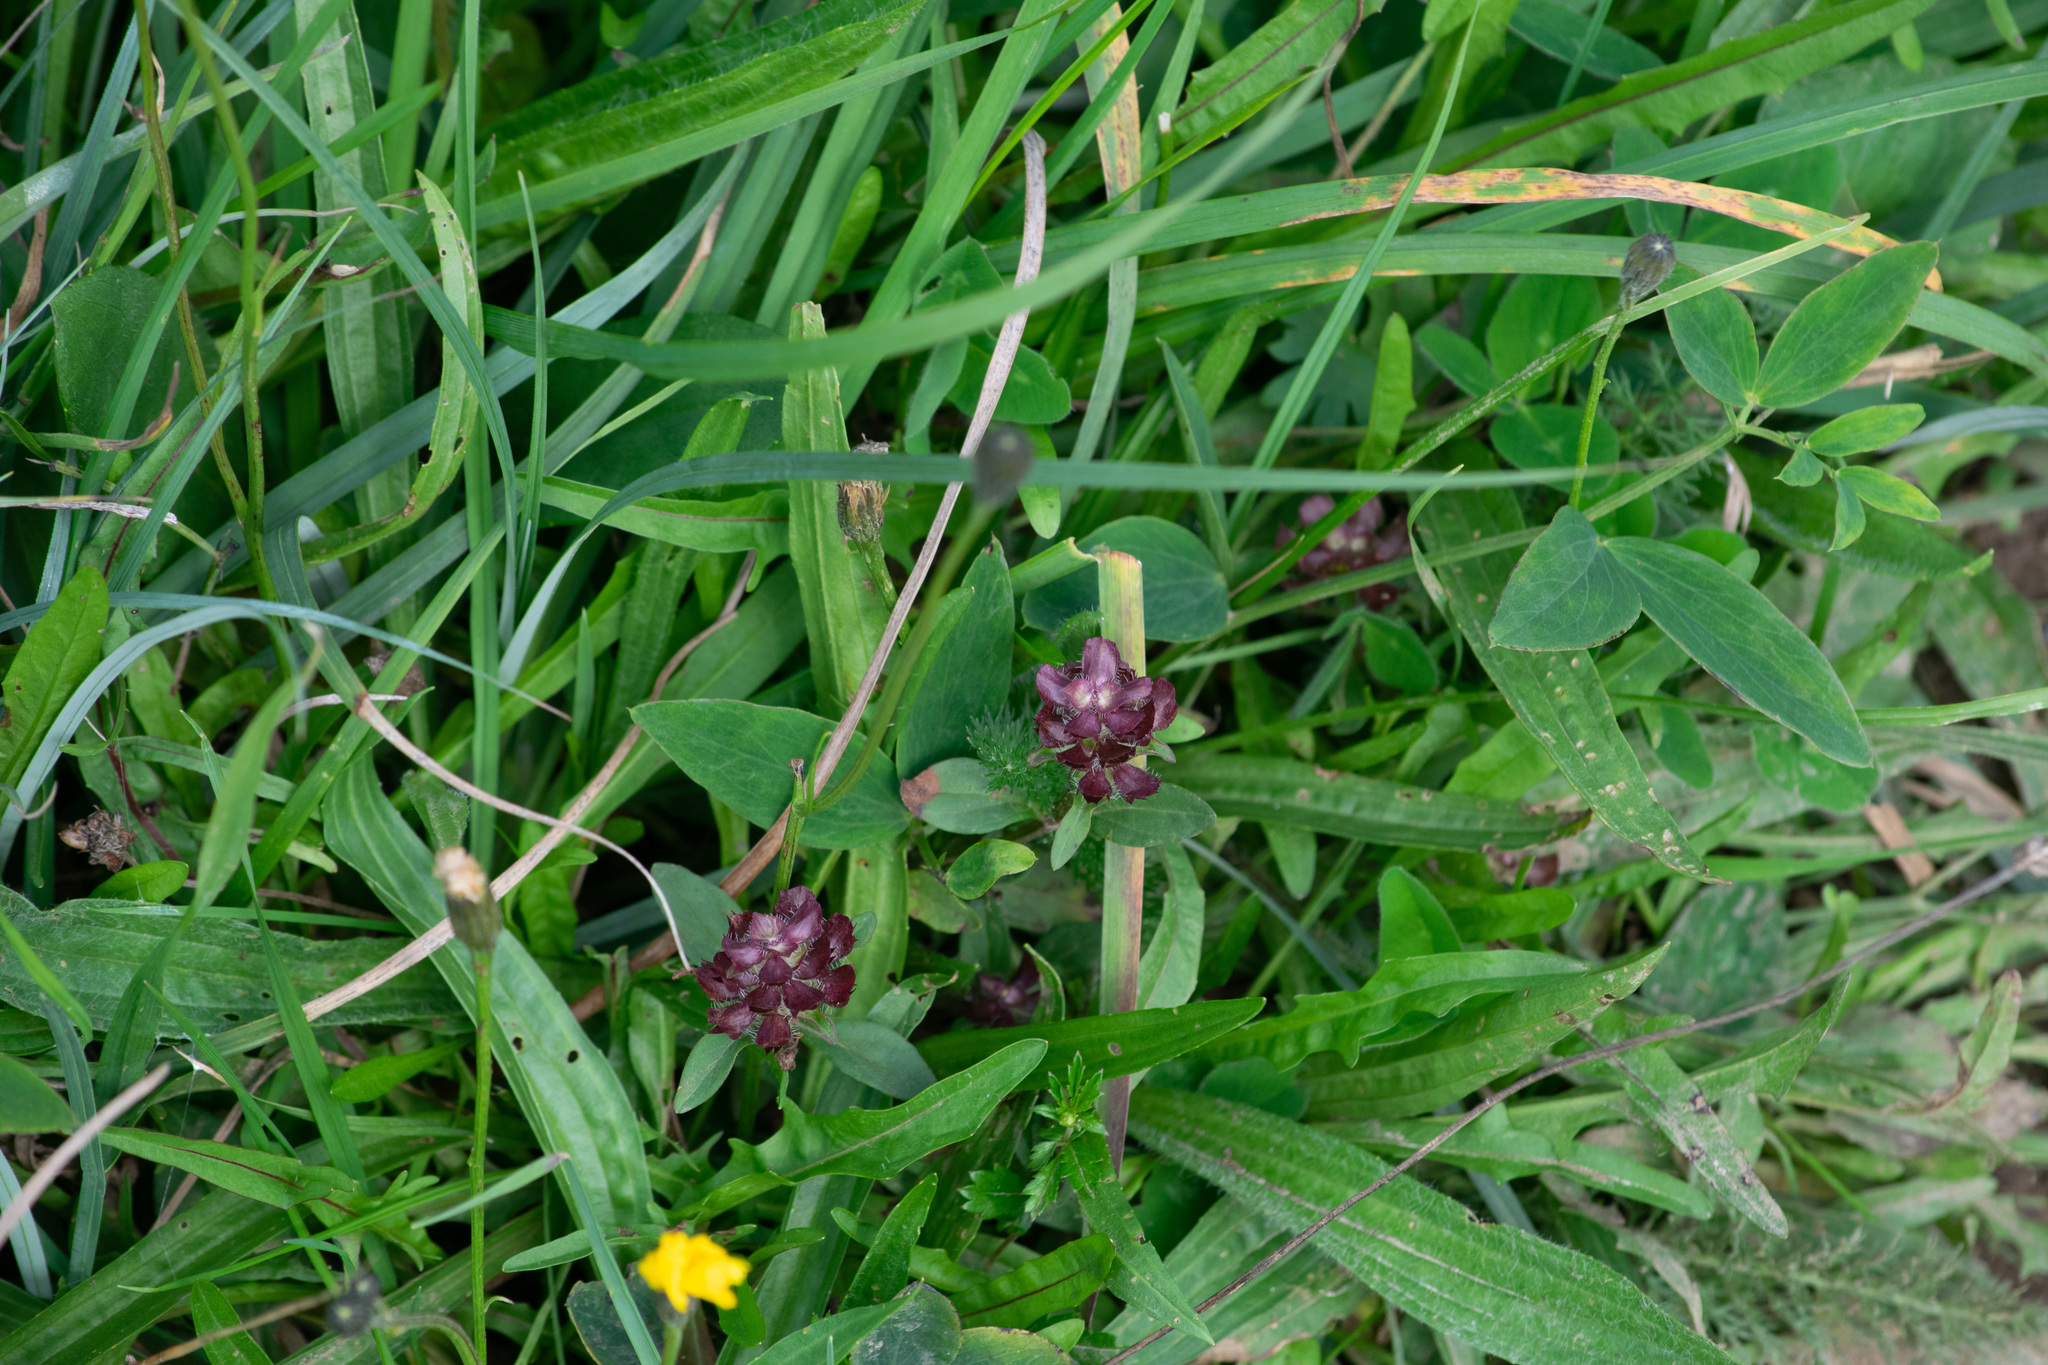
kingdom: Plantae
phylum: Tracheophyta
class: Magnoliopsida
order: Lamiales
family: Lamiaceae
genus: Prunella
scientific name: Prunella vulgaris
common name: Heal-all
